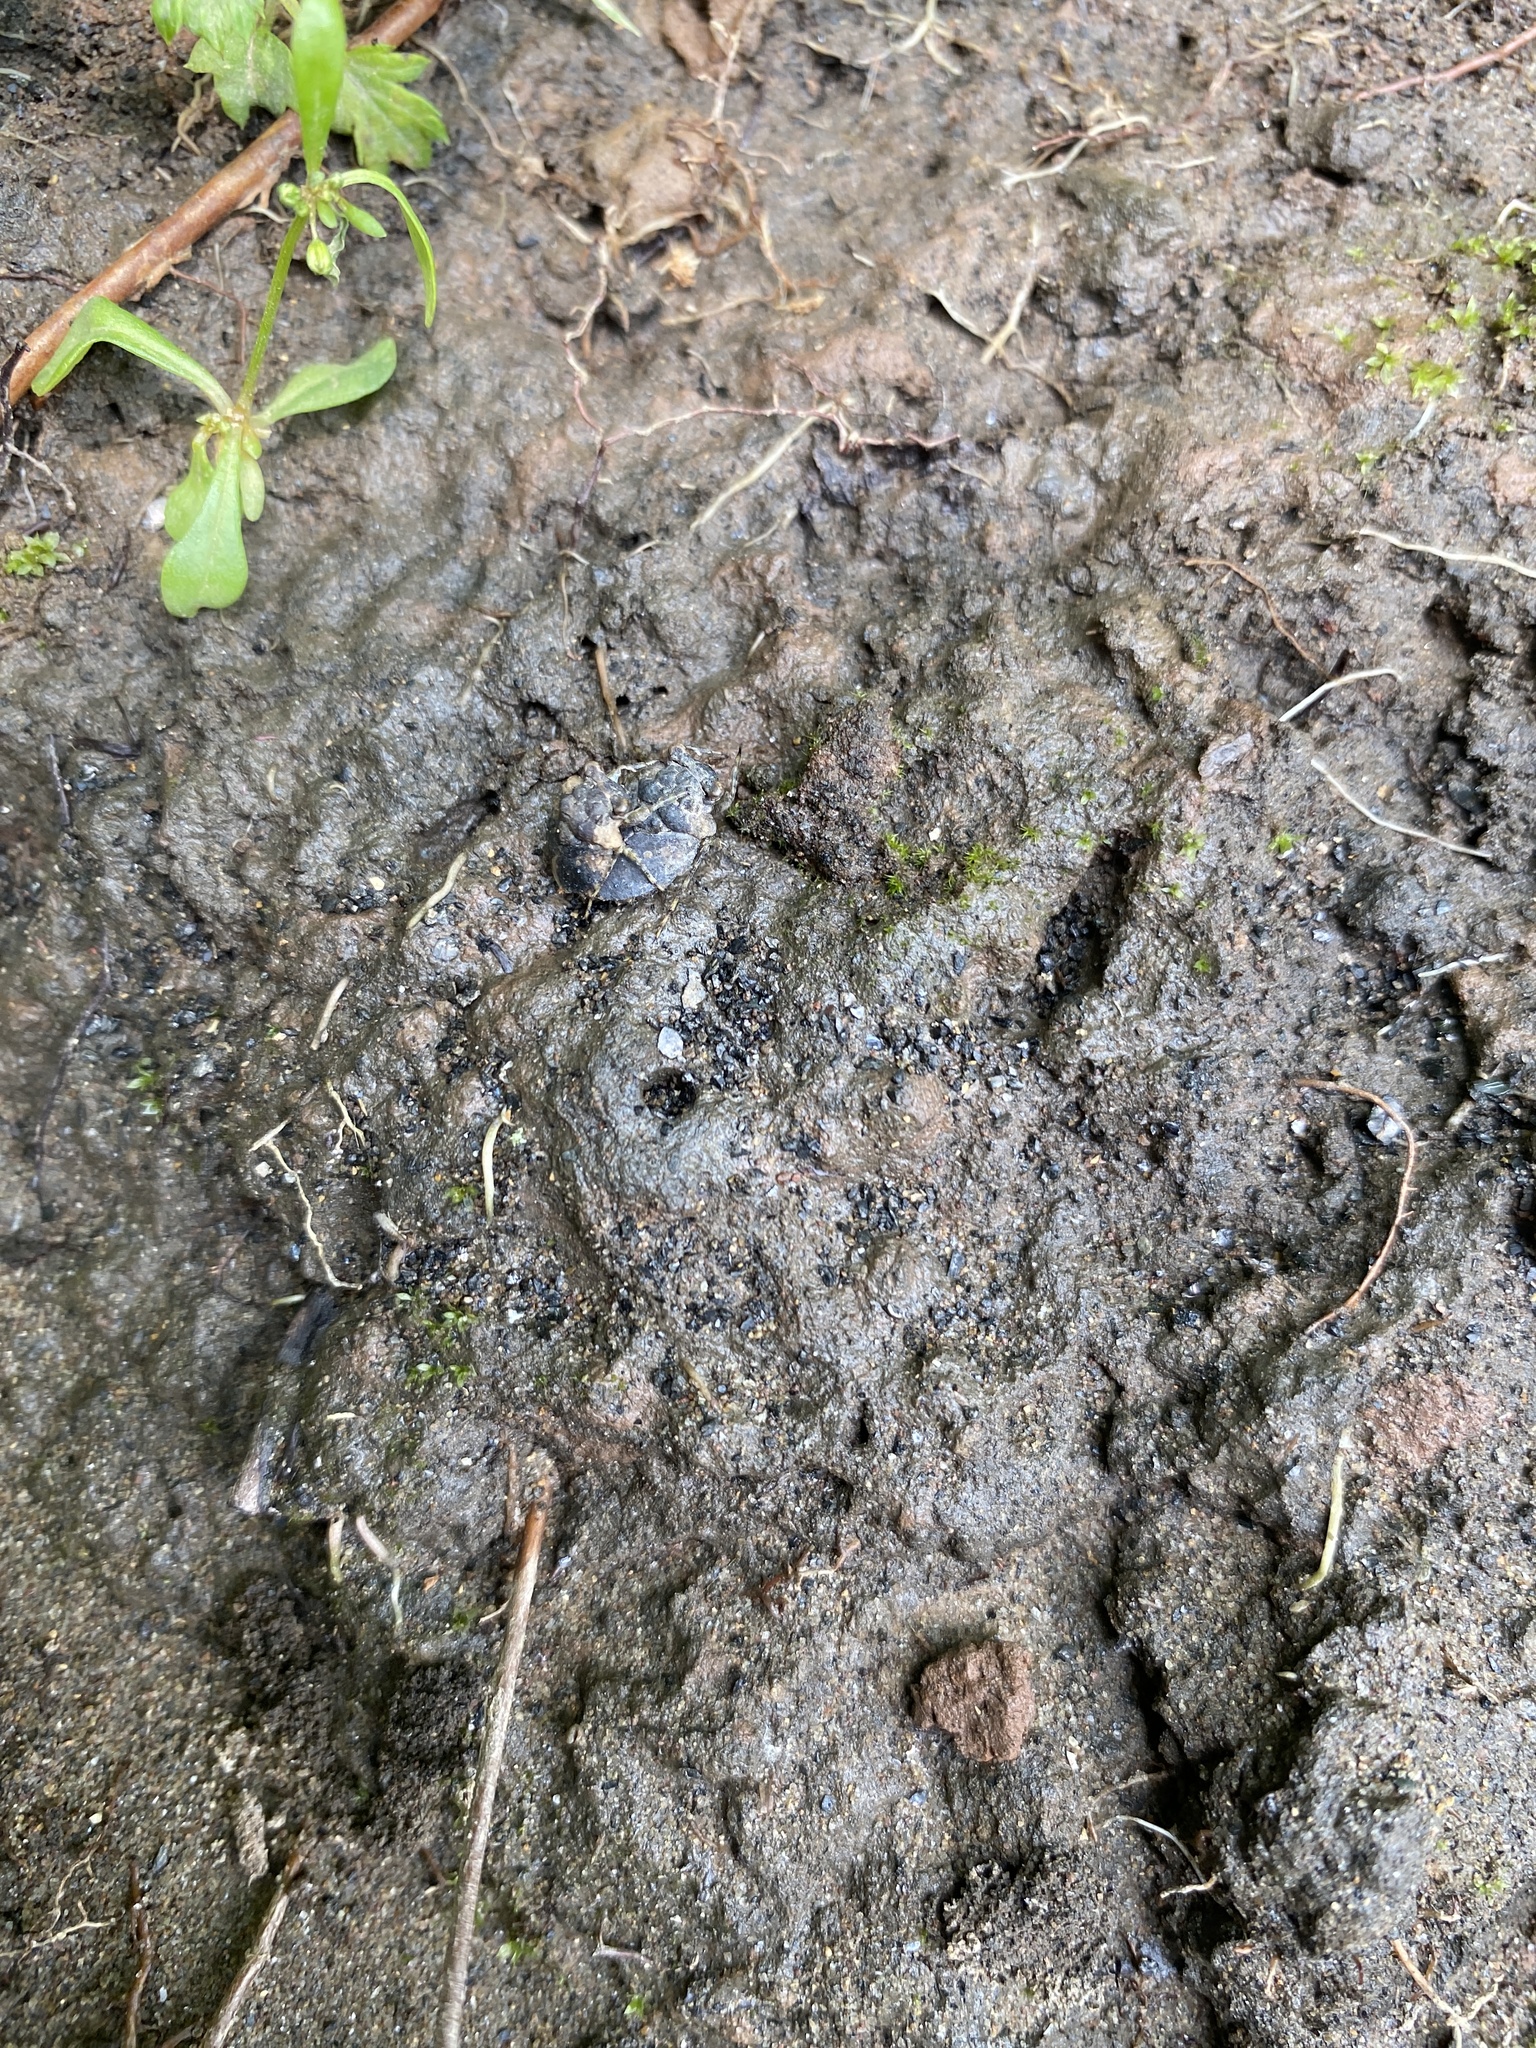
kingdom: Animalia
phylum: Arthropoda
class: Insecta
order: Hemiptera
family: Gelastocoridae
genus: Gelastocoris
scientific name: Gelastocoris oculatus
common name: Toad bug
